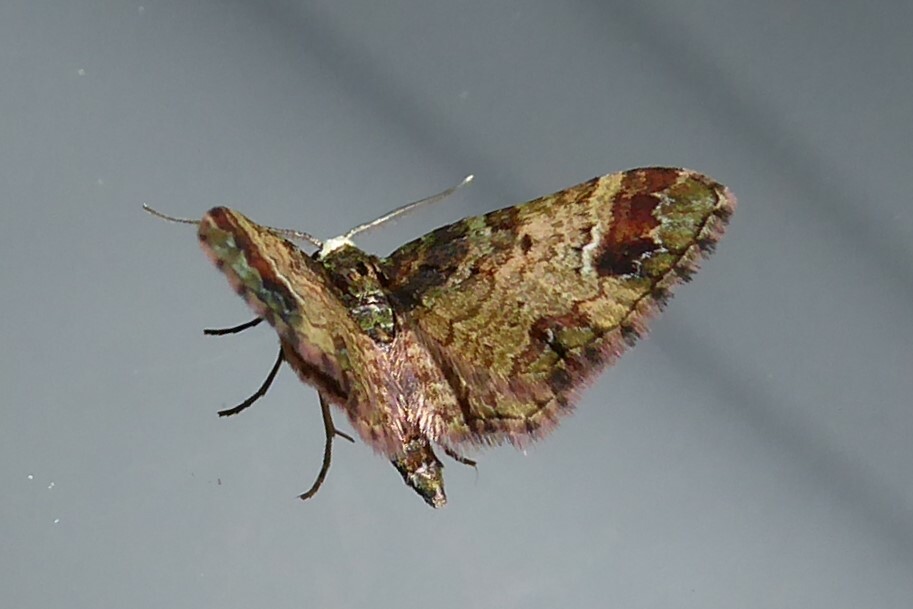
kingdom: Animalia
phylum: Arthropoda
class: Insecta
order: Lepidoptera
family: Geometridae
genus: Pasiphila
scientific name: Pasiphila sandycias
